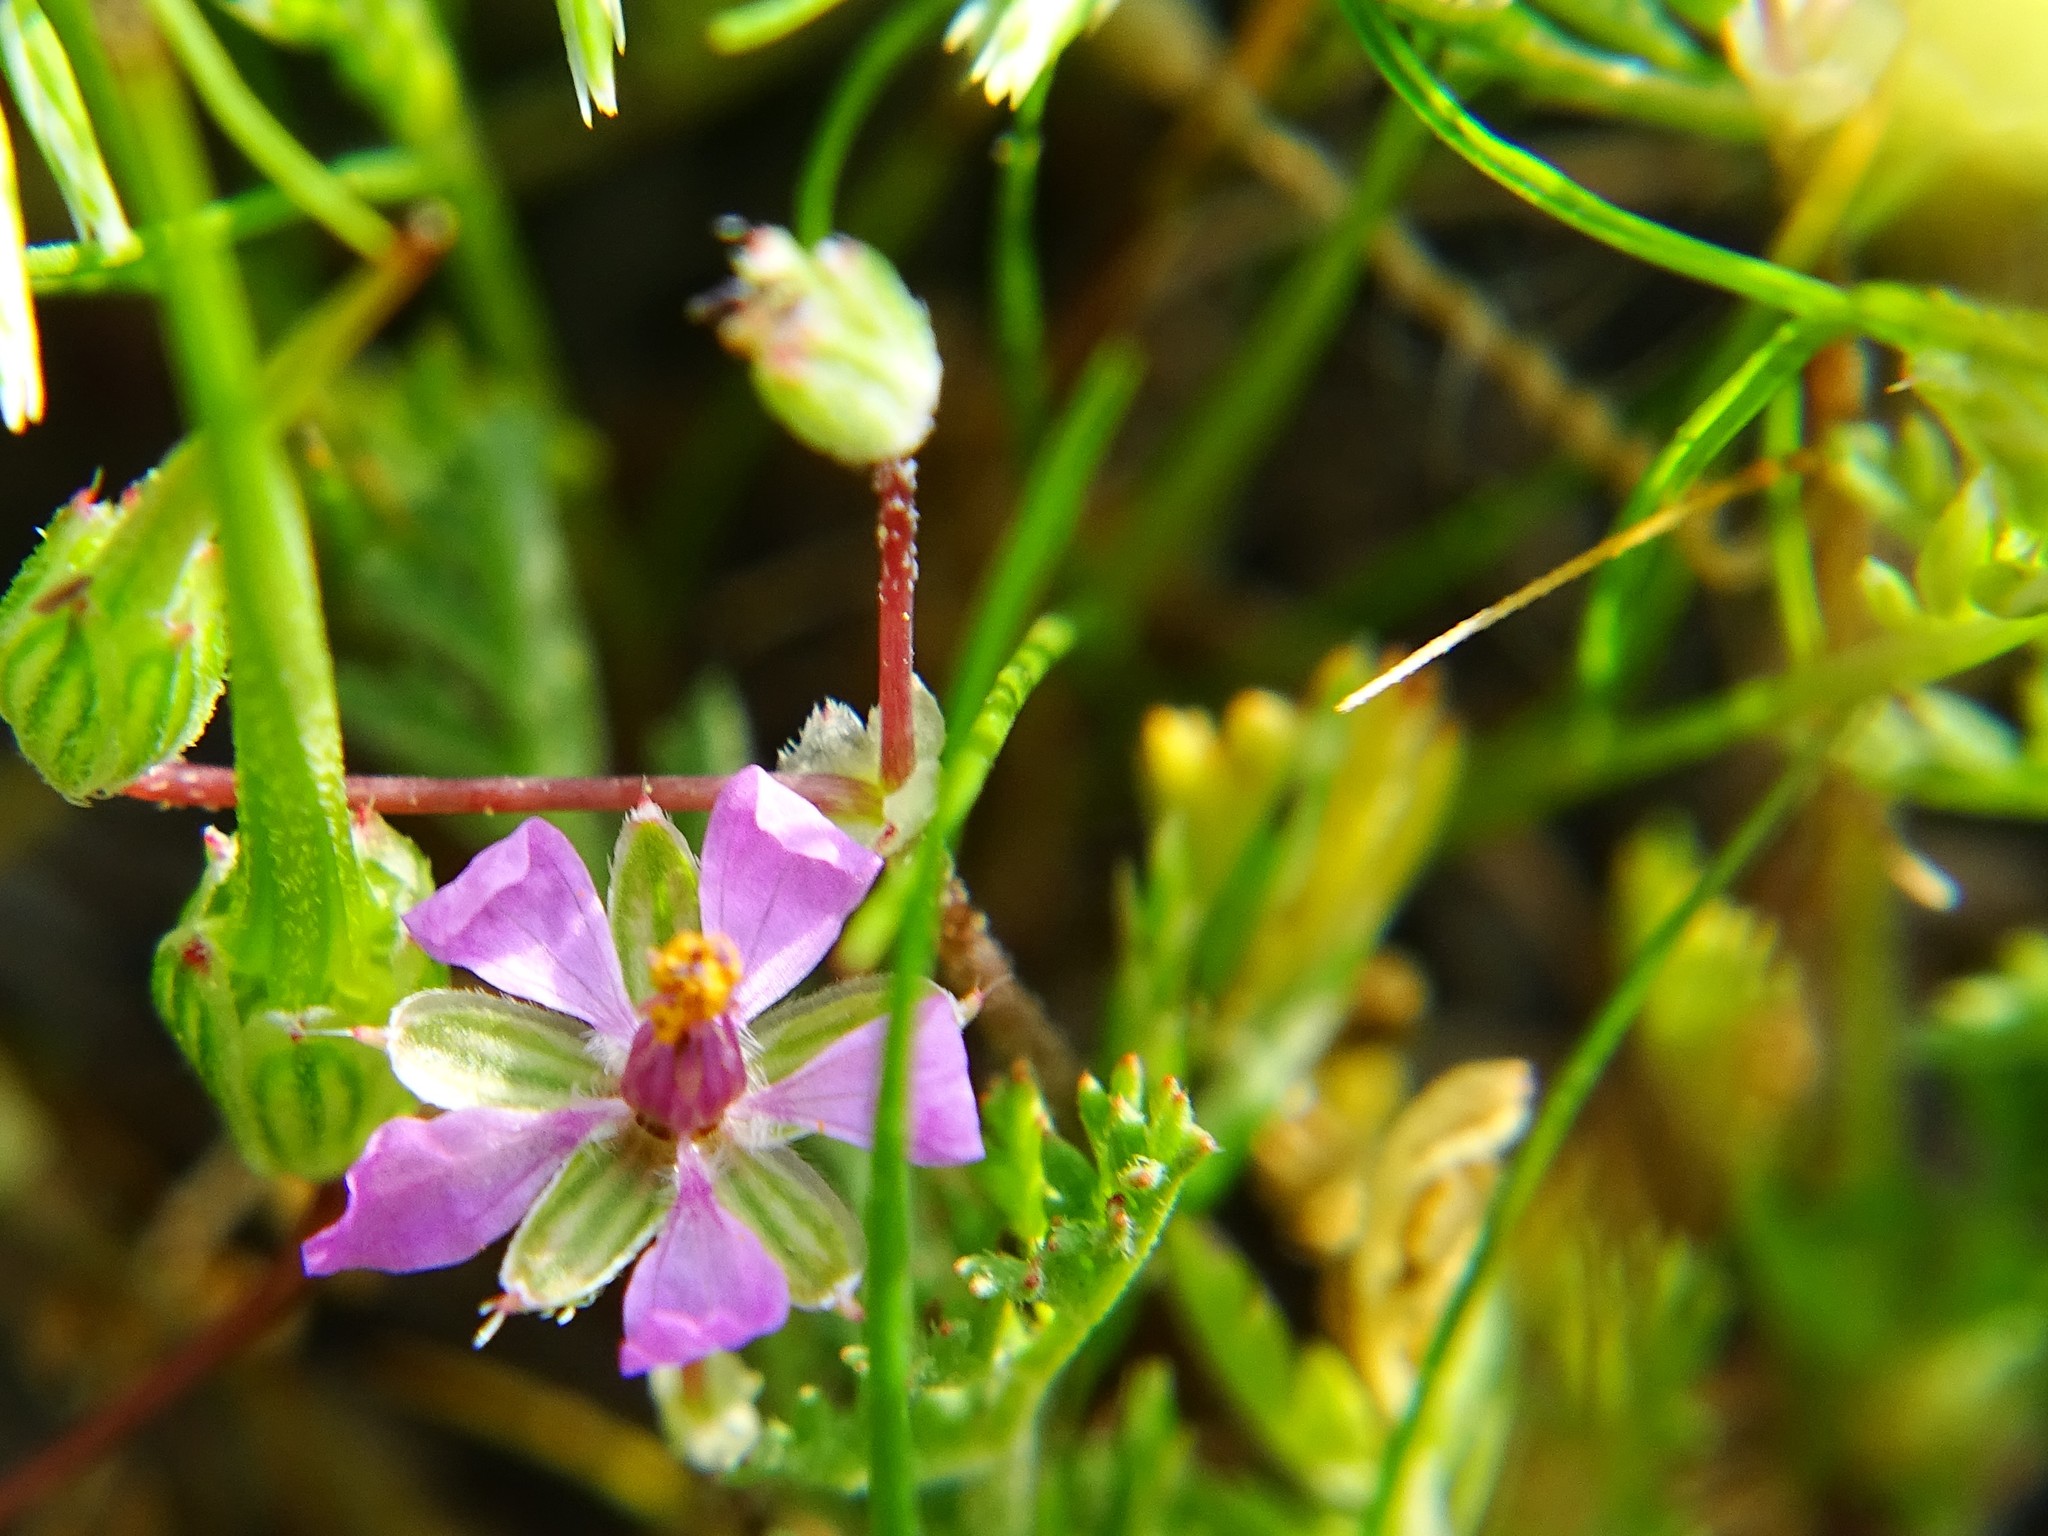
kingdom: Plantae
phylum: Tracheophyta
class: Magnoliopsida
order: Geraniales
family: Geraniaceae
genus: Erodium
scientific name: Erodium cicutarium
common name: Common stork's-bill
